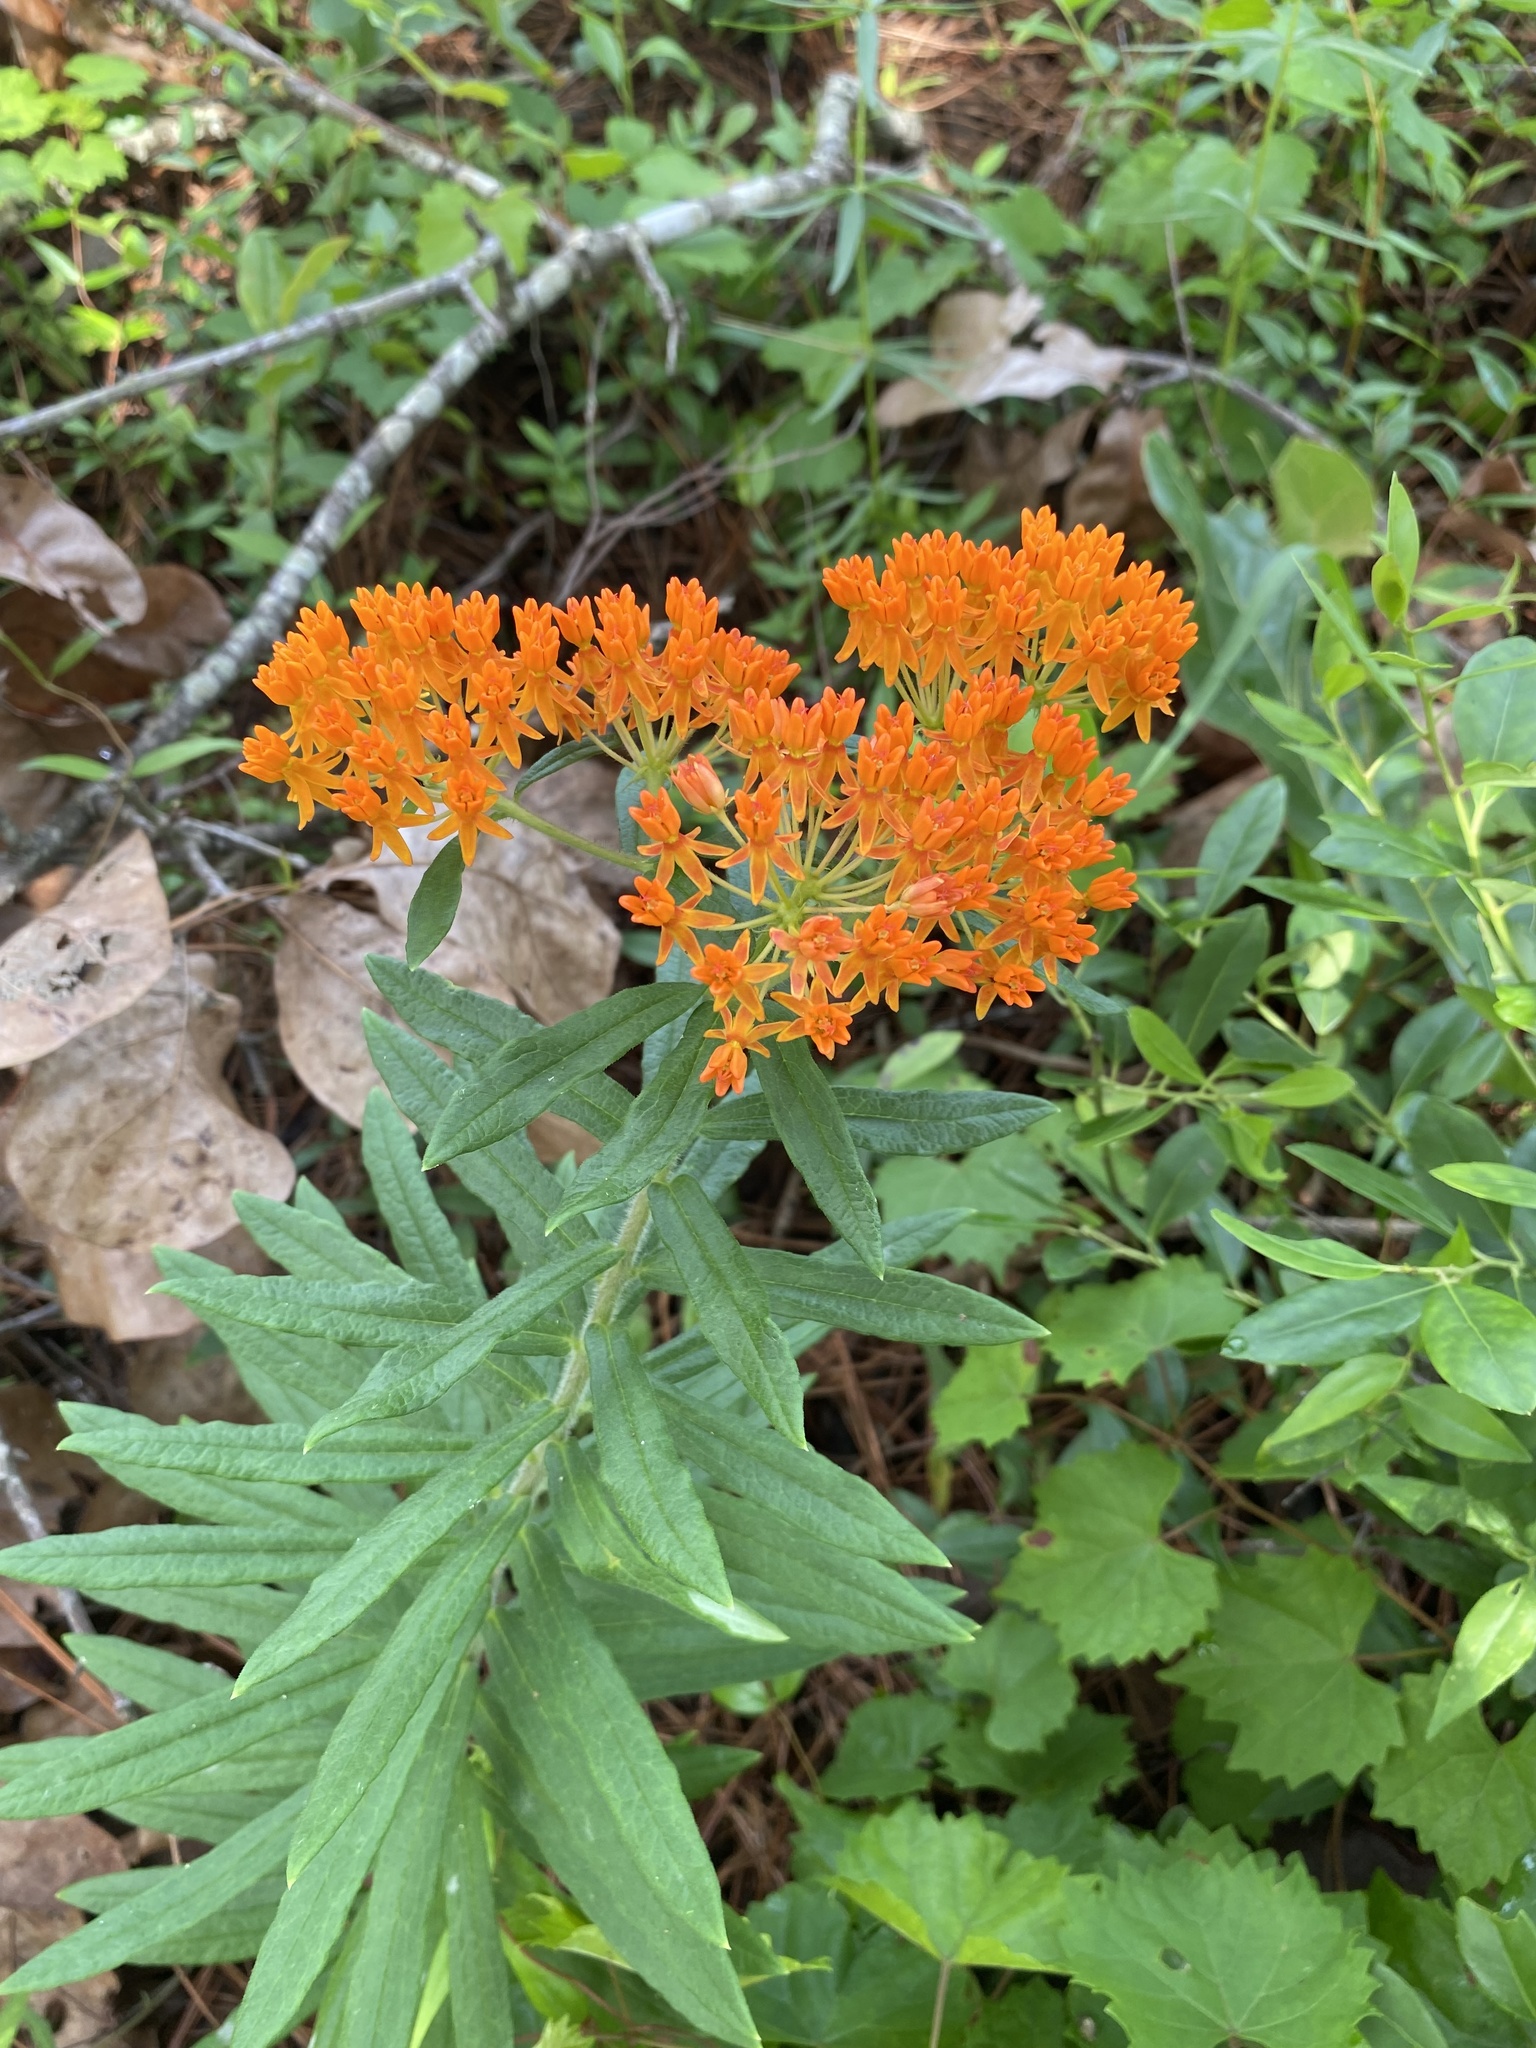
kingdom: Plantae
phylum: Tracheophyta
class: Magnoliopsida
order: Gentianales
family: Apocynaceae
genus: Asclepias
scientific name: Asclepias tuberosa
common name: Butterfly milkweed
